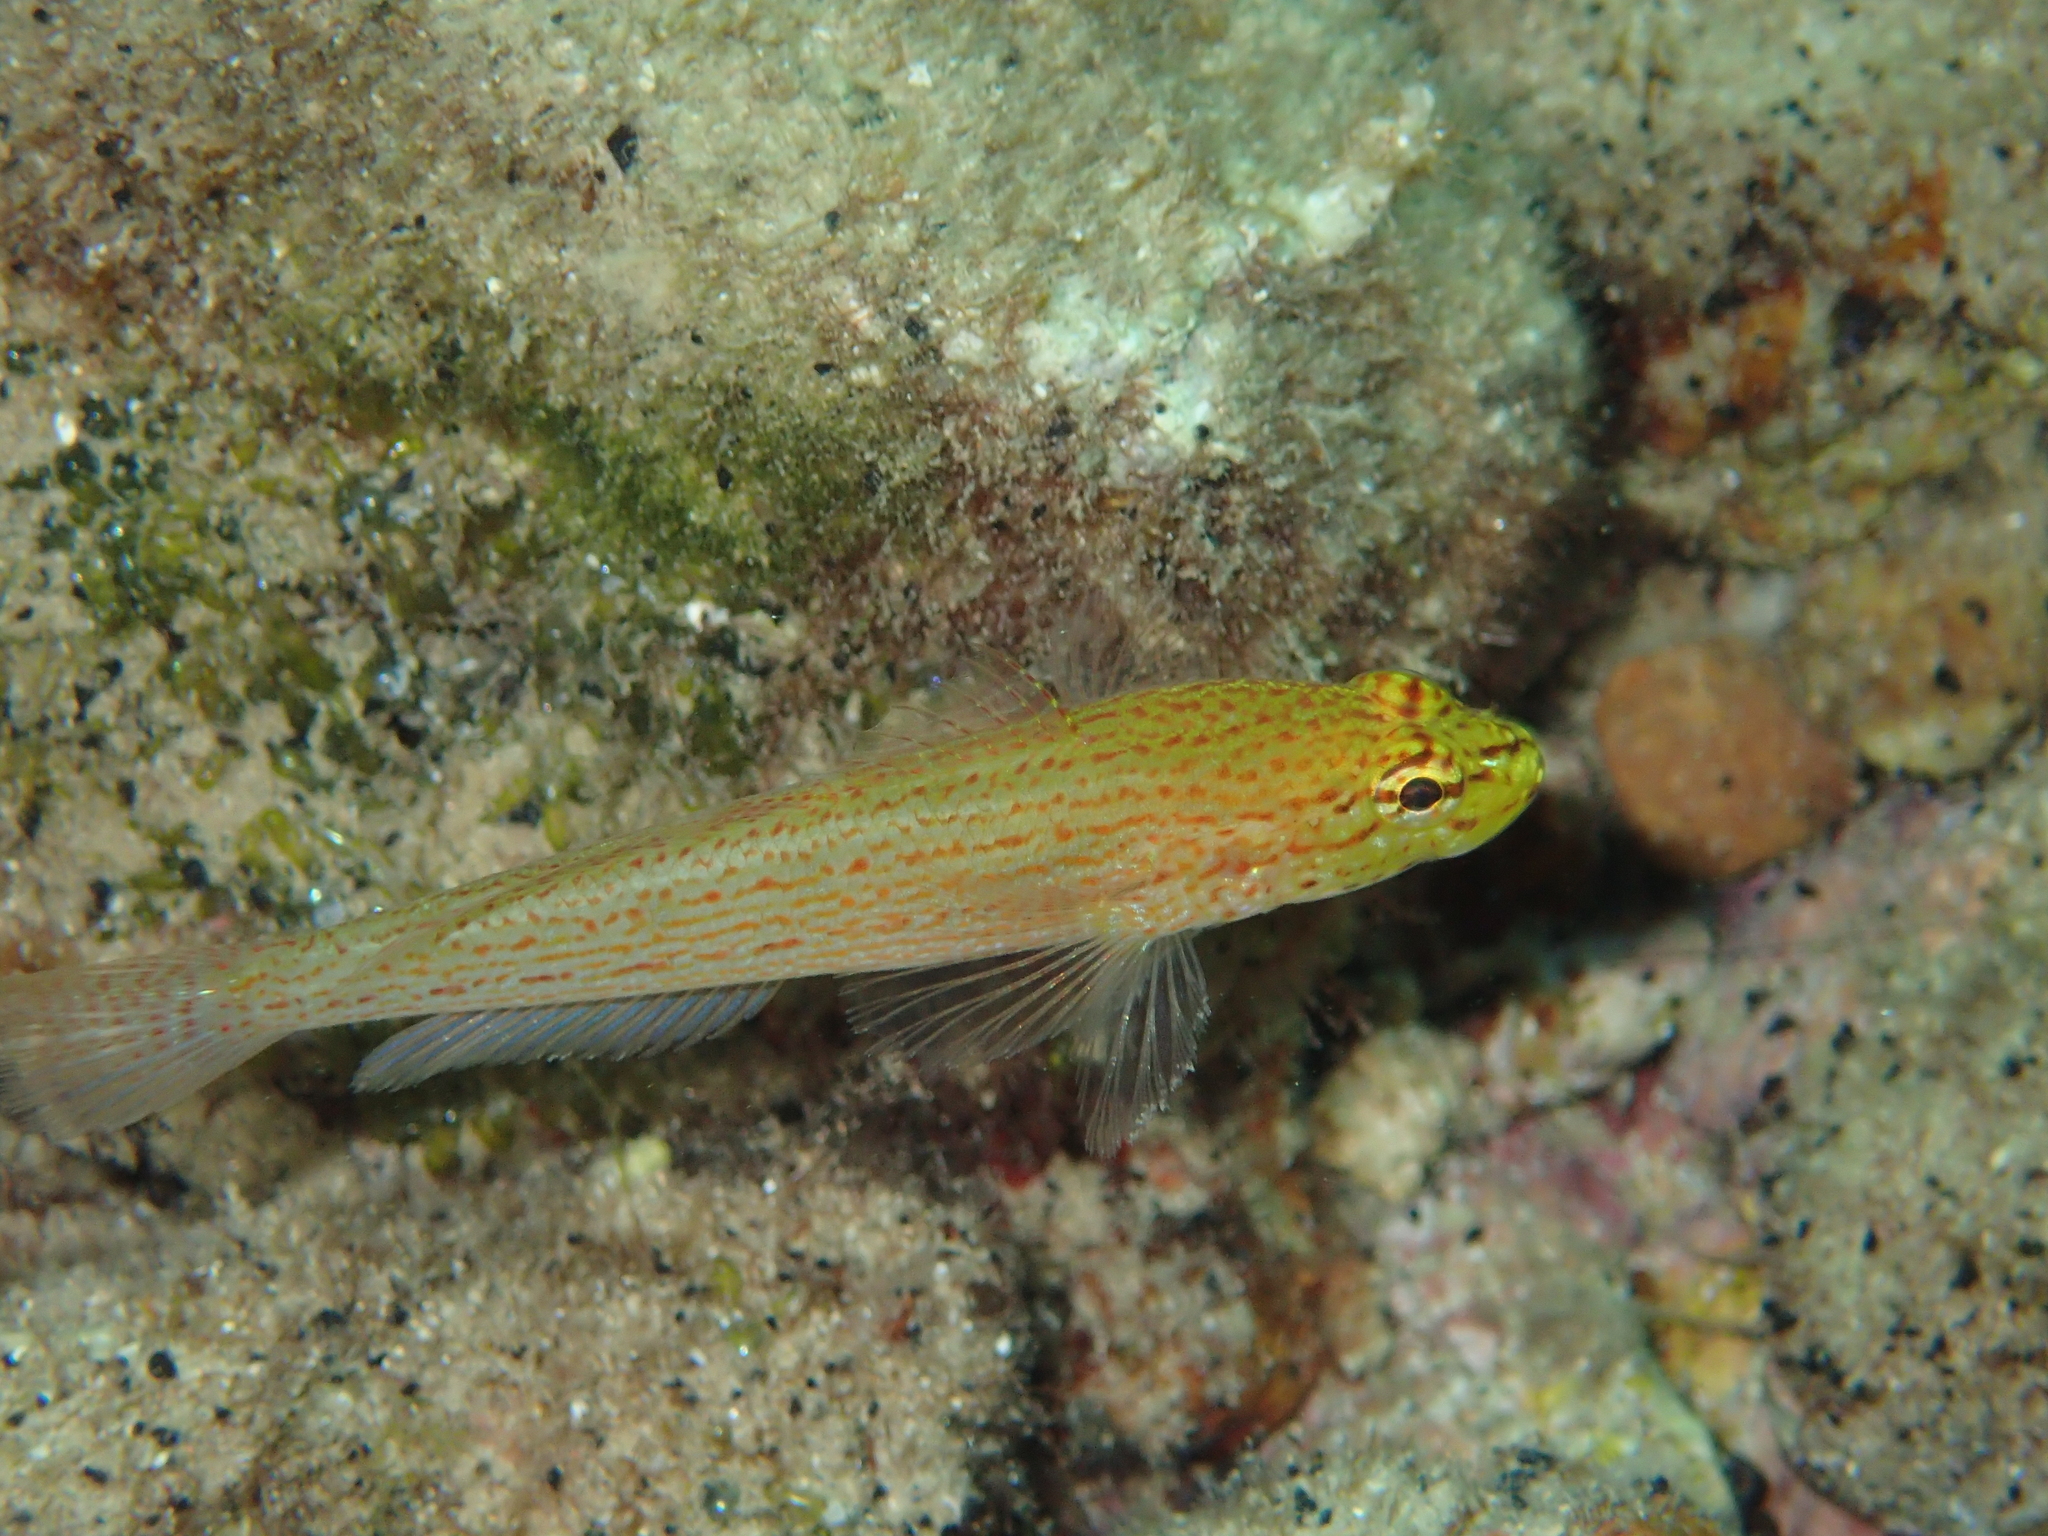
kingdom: Animalia
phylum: Chordata
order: Perciformes
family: Gobiidae
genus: Gobius
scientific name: Gobius auratus
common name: Golden goby
